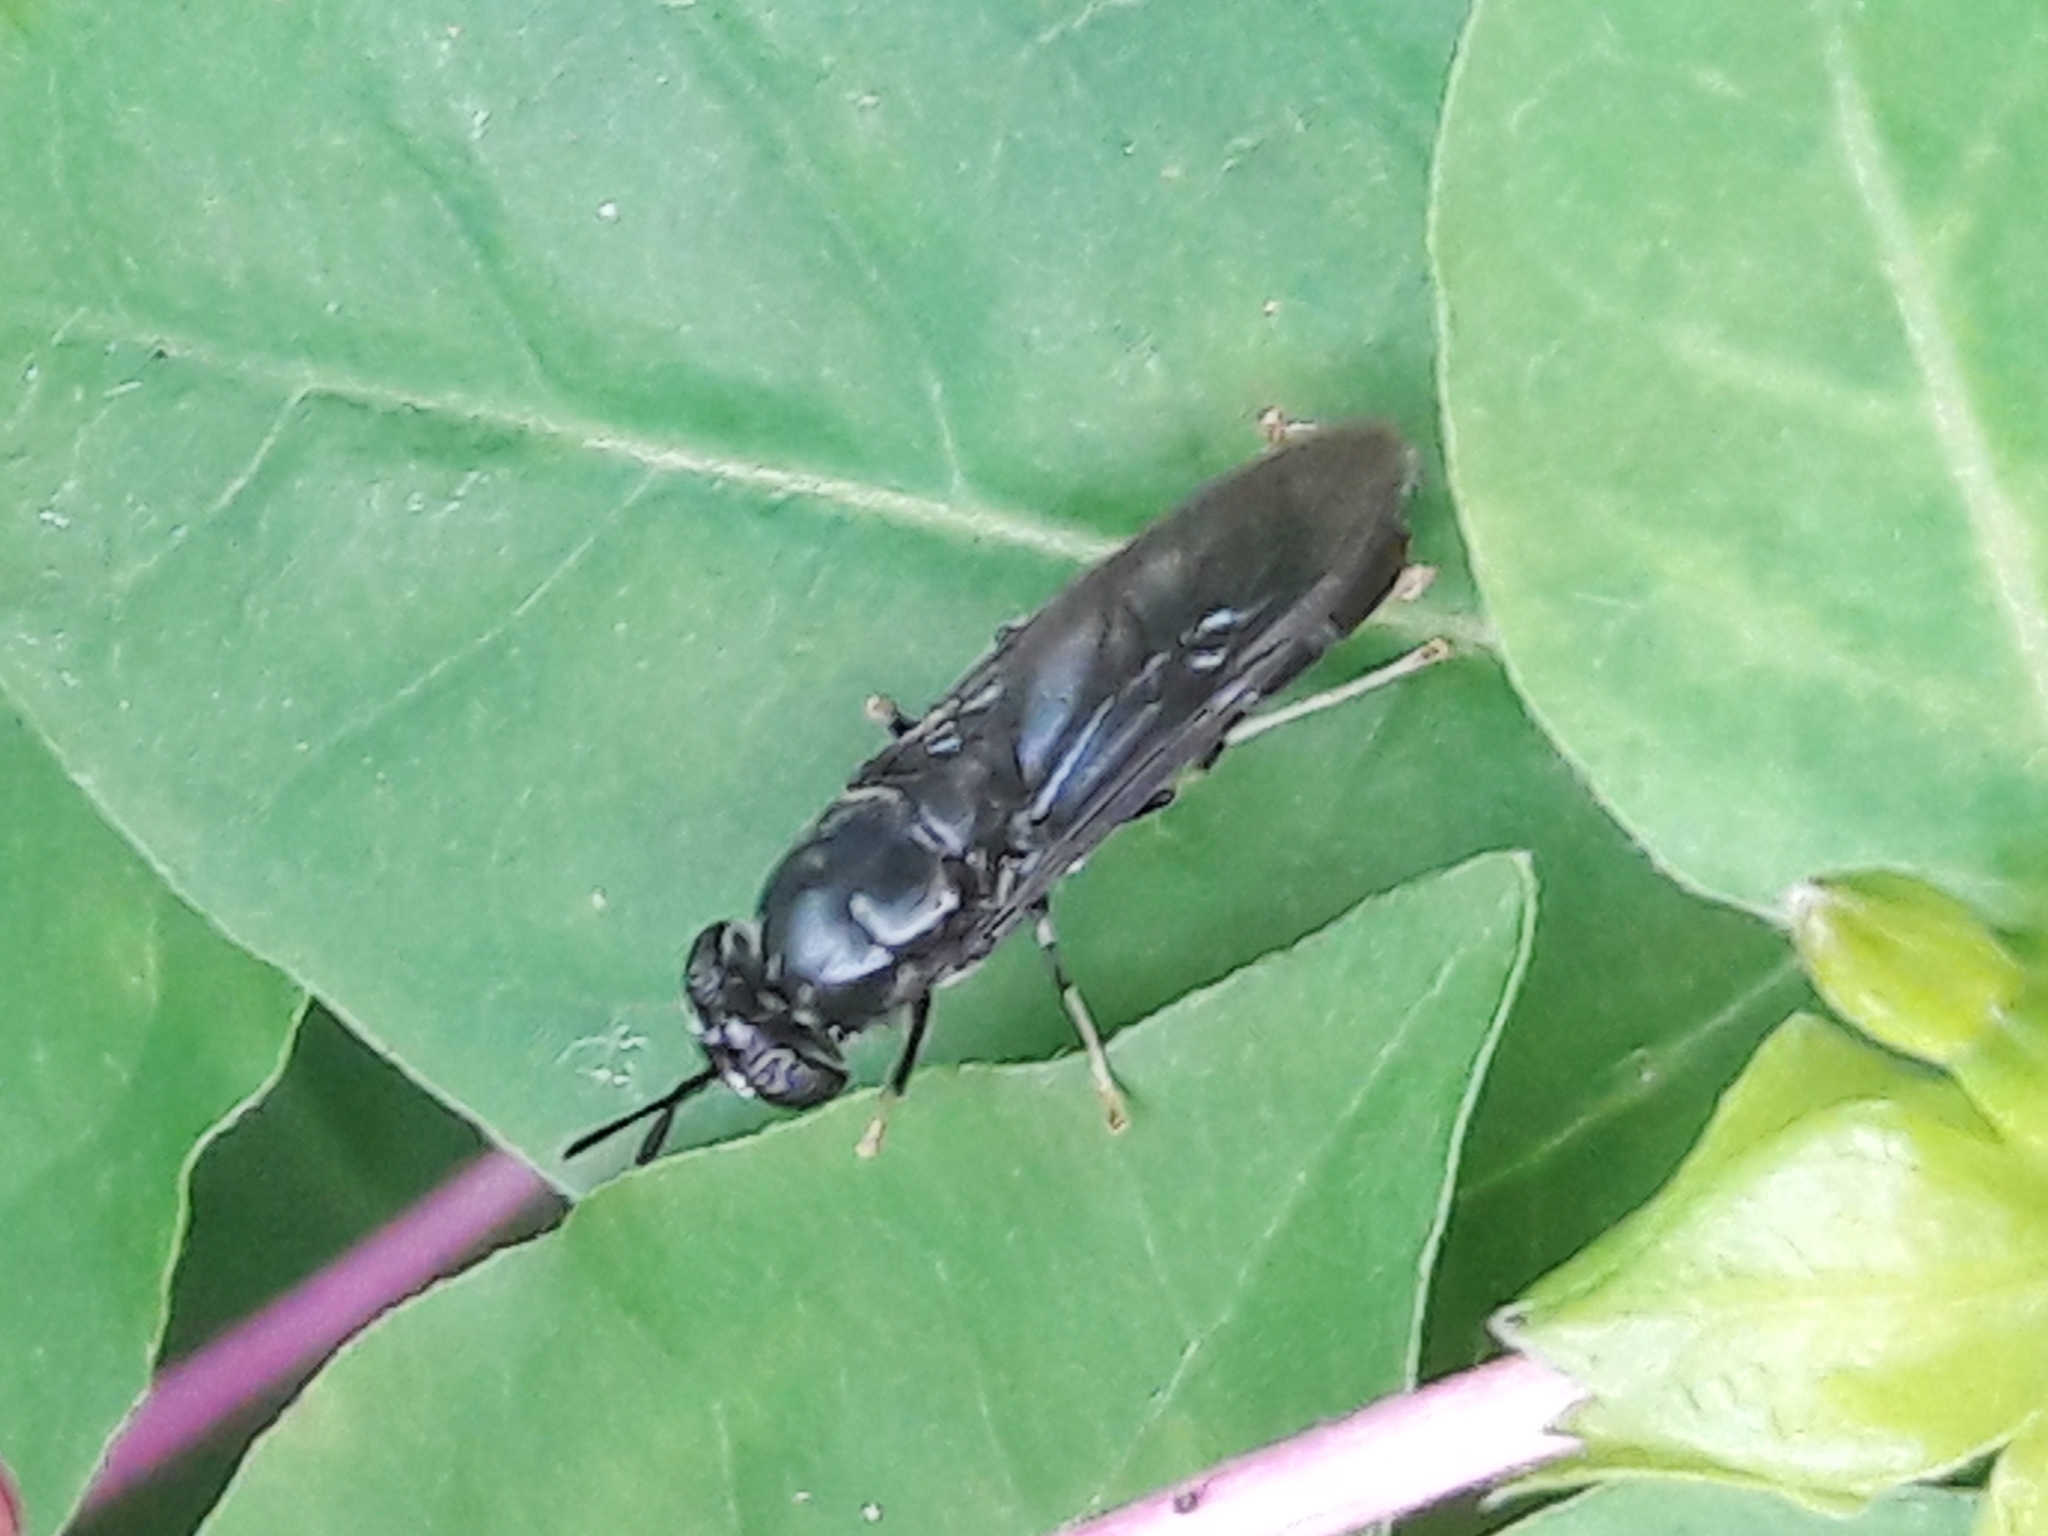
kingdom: Animalia
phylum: Arthropoda
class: Insecta
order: Diptera
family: Stratiomyidae
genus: Hermetia
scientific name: Hermetia illucens
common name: Black soldier fly
